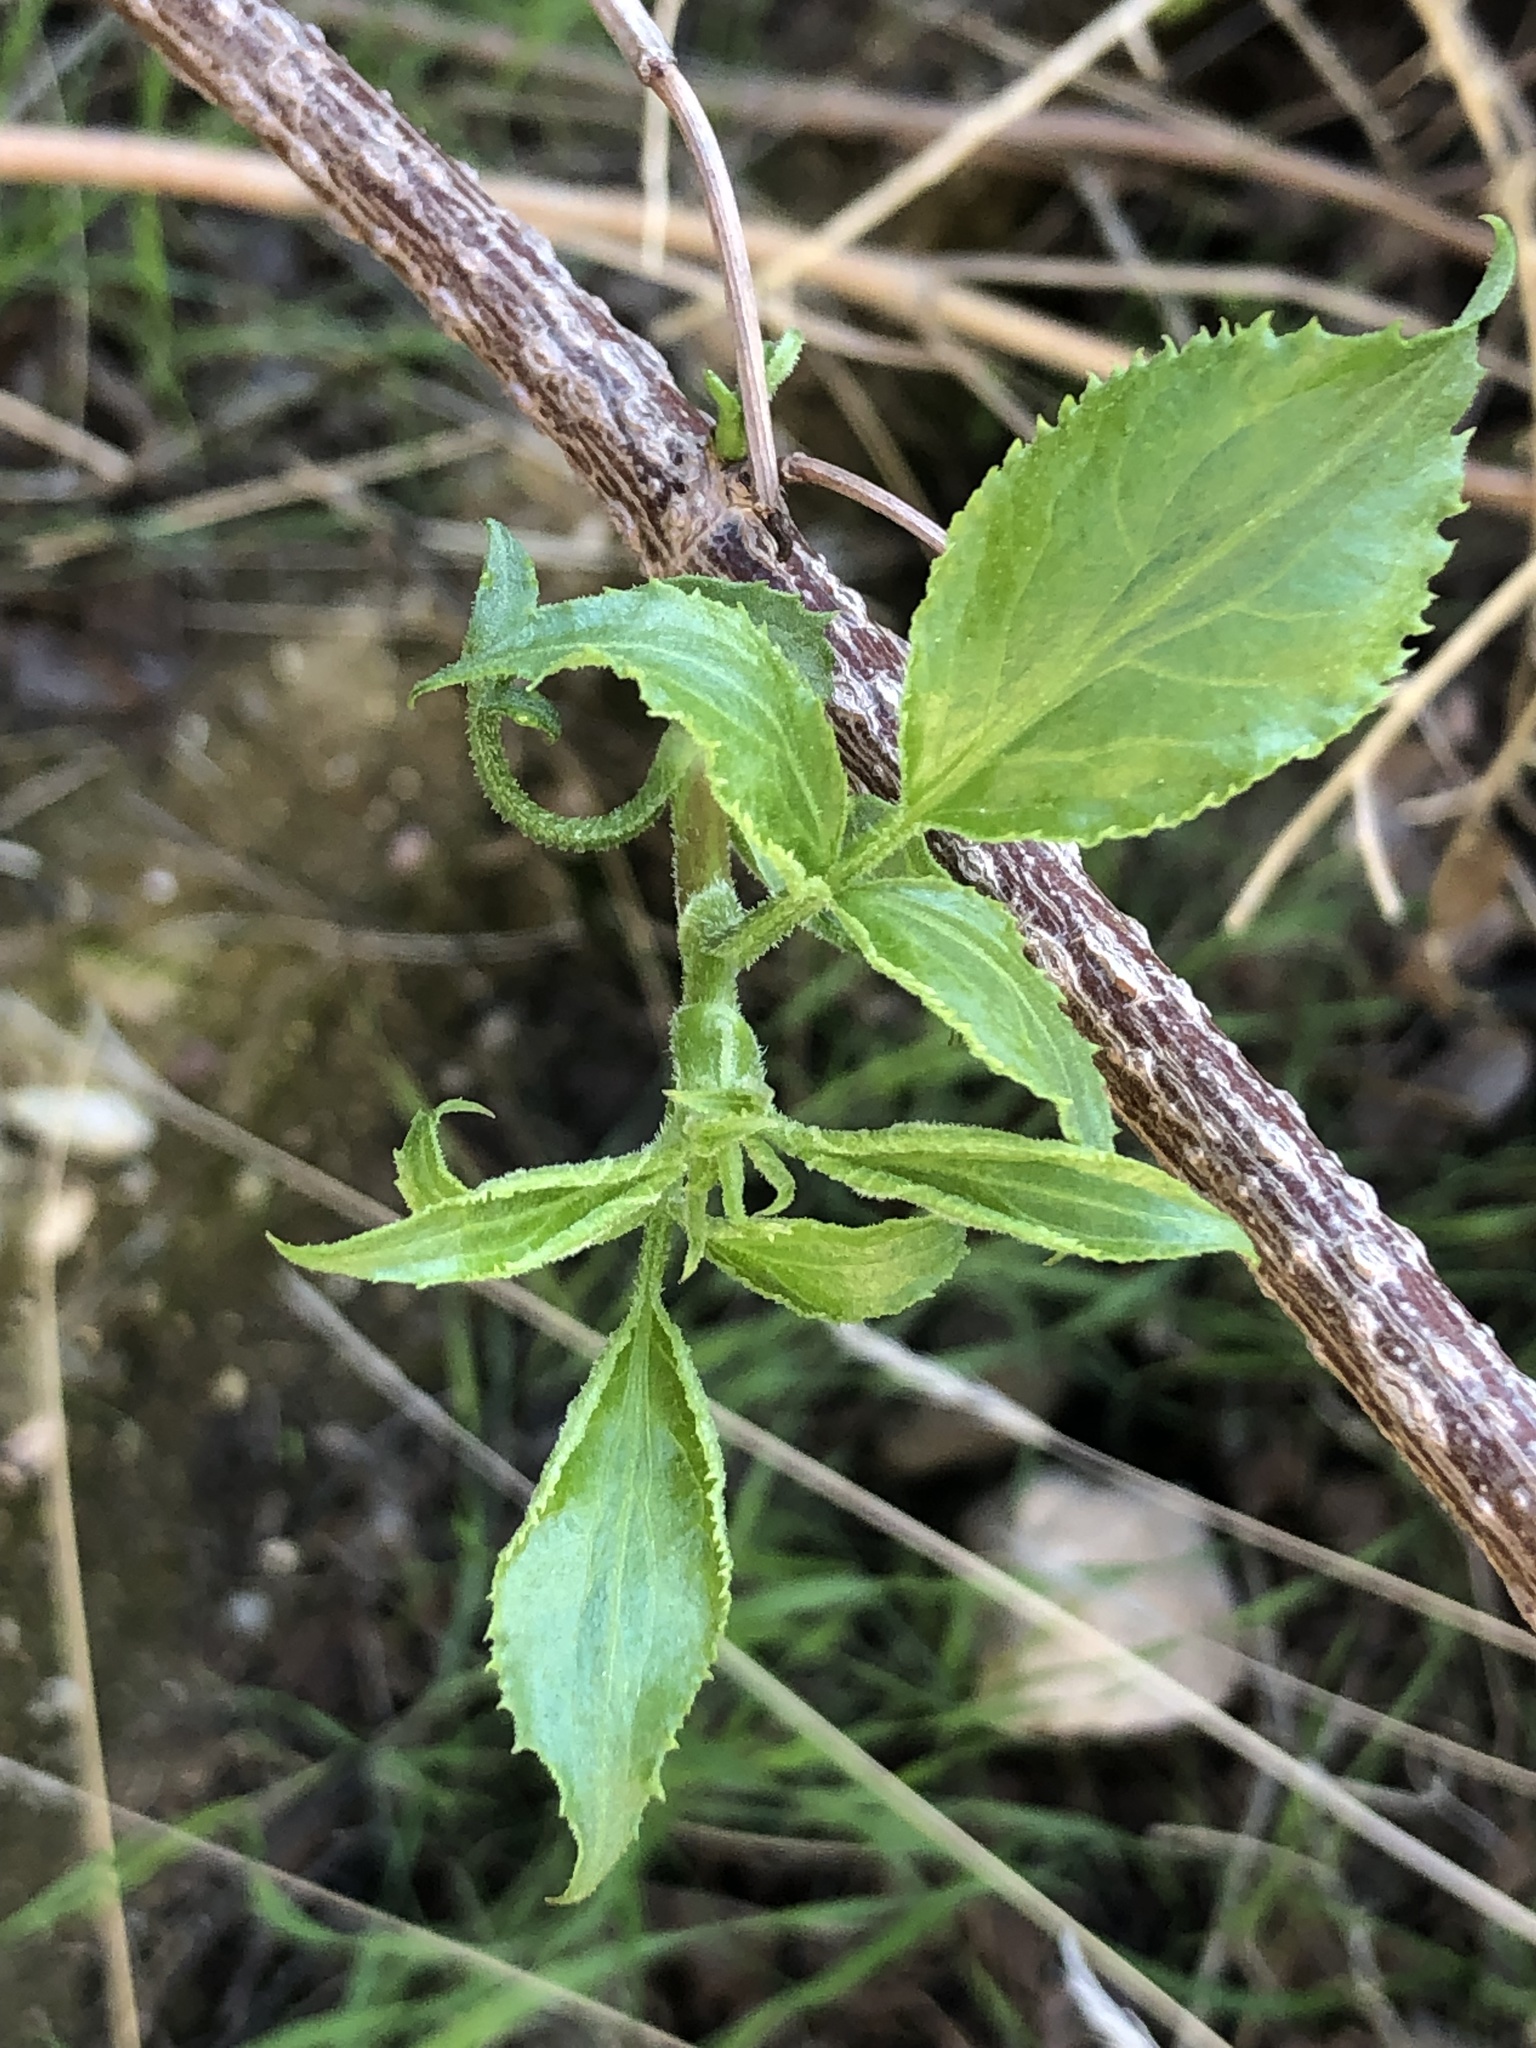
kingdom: Plantae
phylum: Tracheophyta
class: Magnoliopsida
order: Dipsacales
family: Viburnaceae
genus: Sambucus
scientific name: Sambucus cerulea
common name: Blue elder
